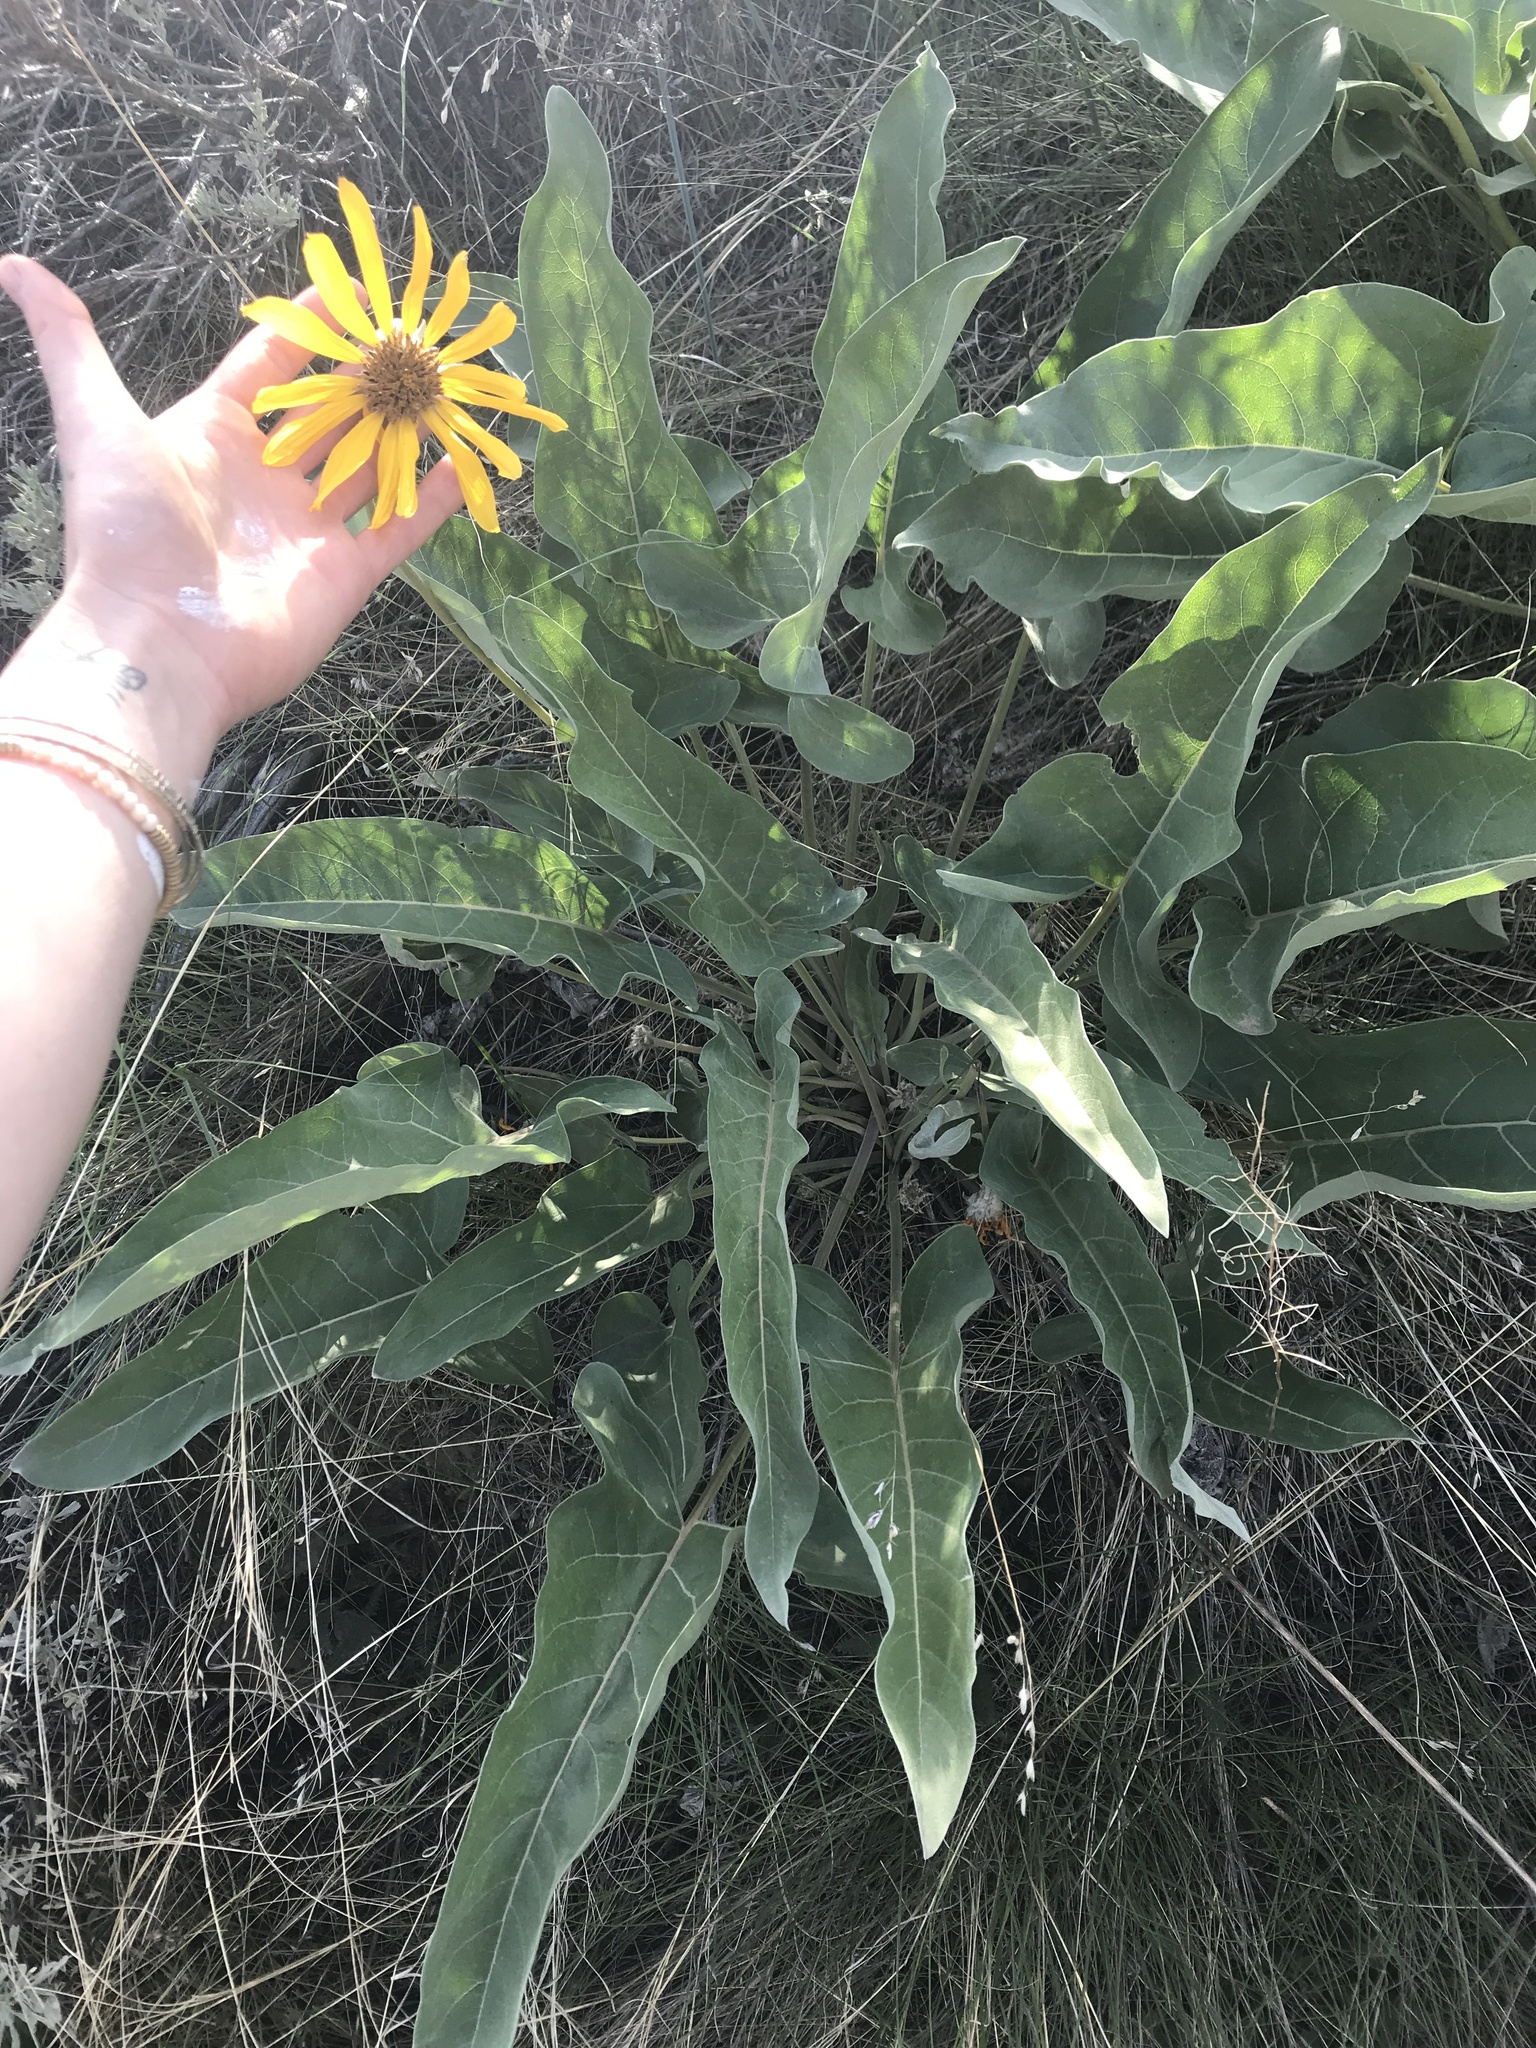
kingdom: Plantae
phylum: Tracheophyta
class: Magnoliopsida
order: Asterales
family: Asteraceae
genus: Wyethia
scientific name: Wyethia sagittata
